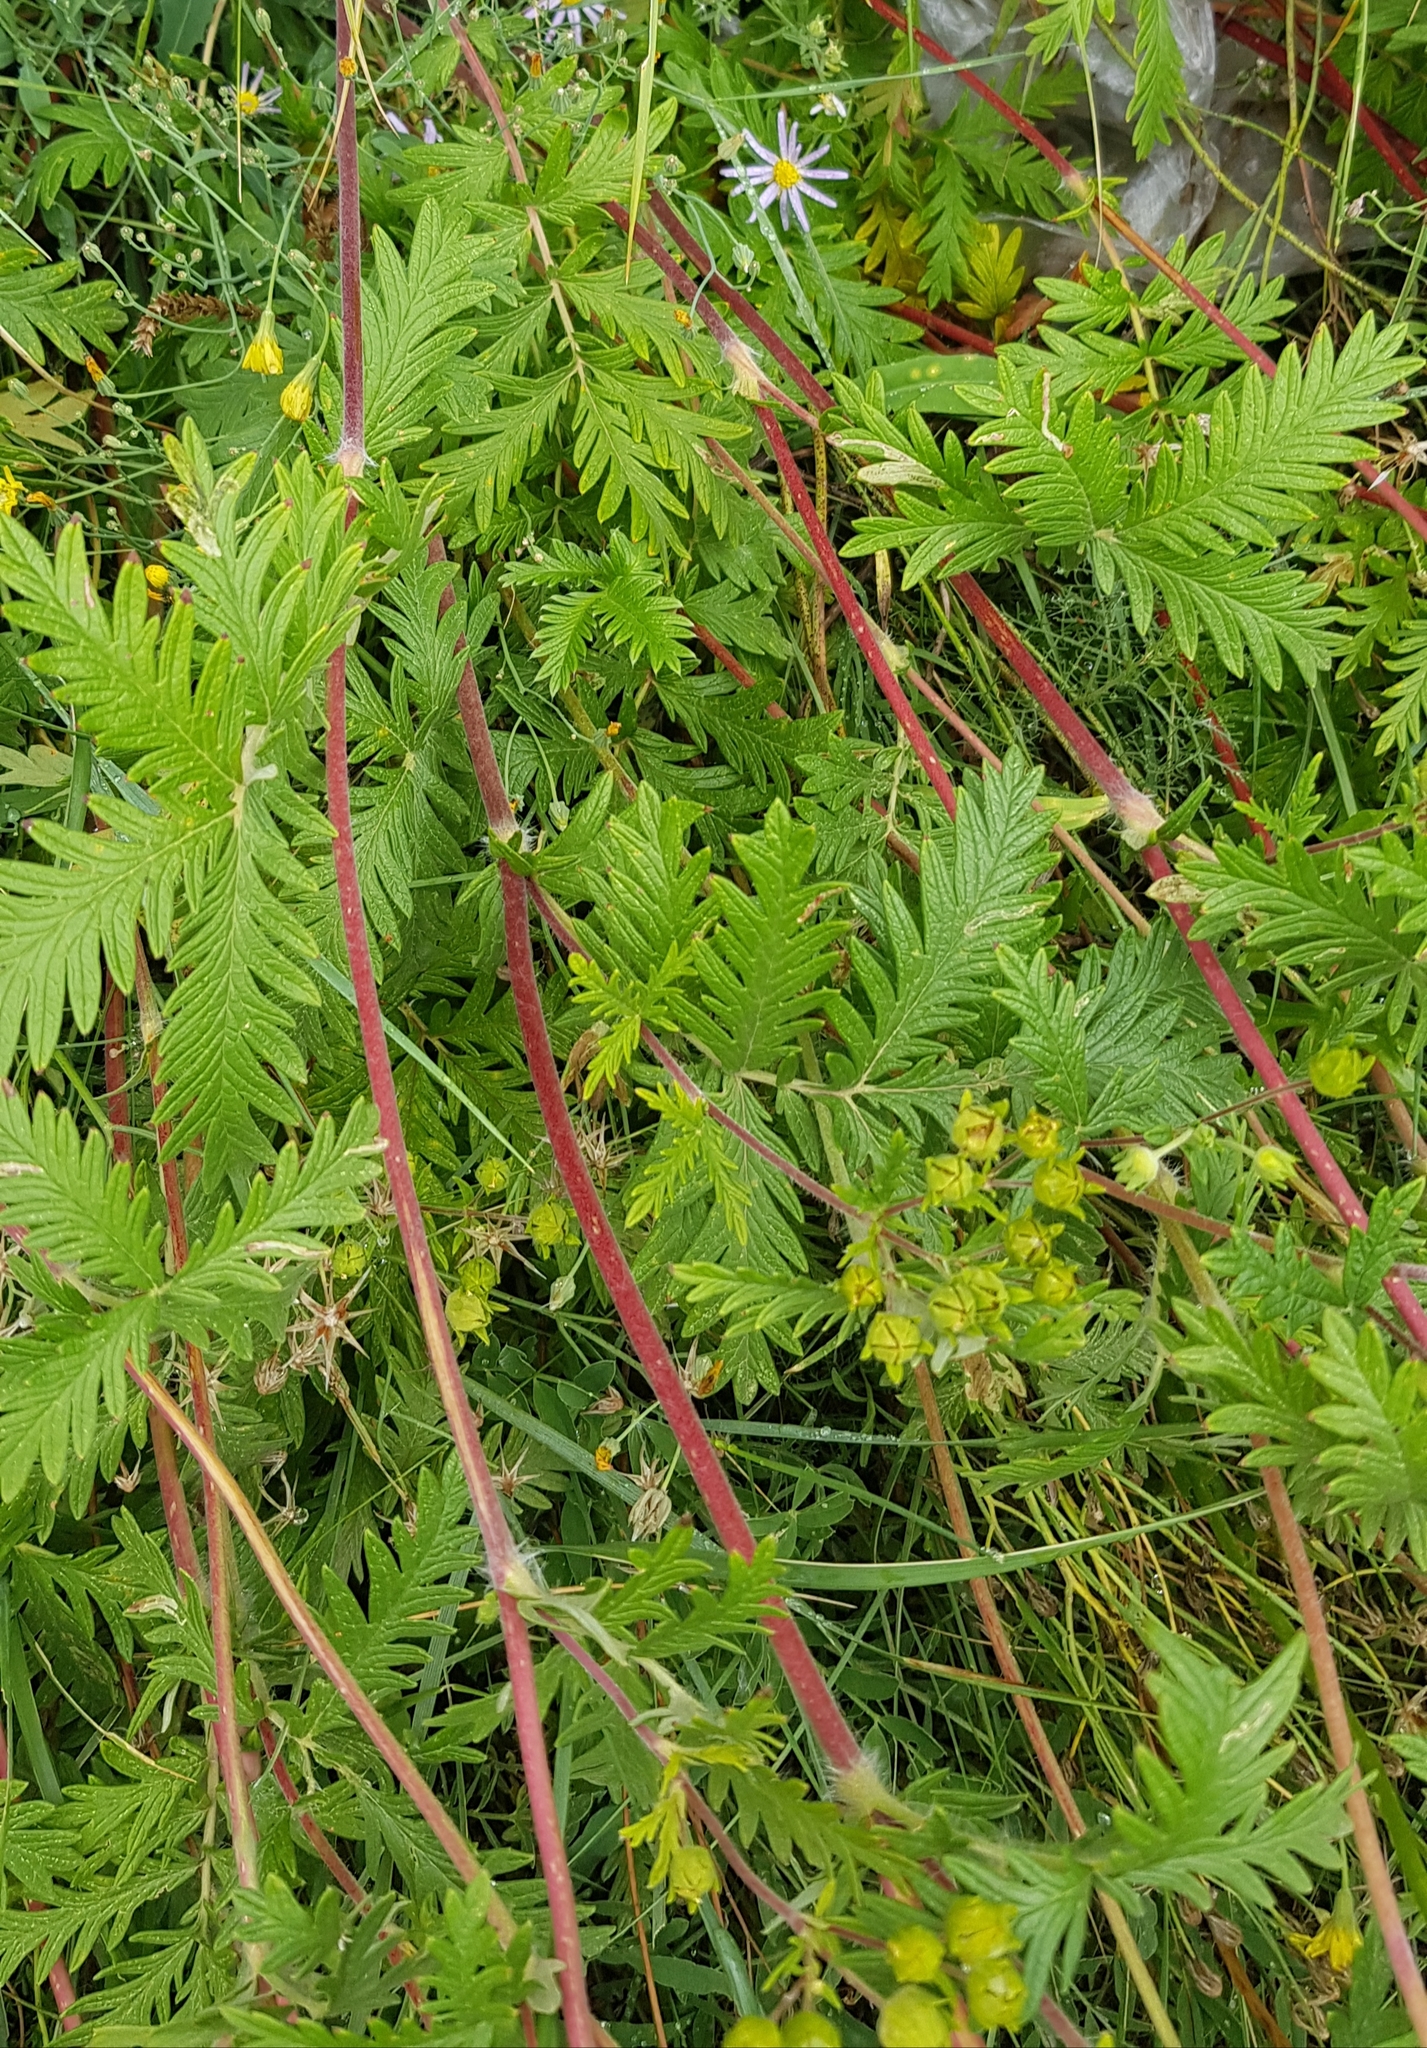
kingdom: Plantae
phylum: Tracheophyta
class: Magnoliopsida
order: Rosales
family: Rosaceae
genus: Potentilla
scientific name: Potentilla tanacetifolia
